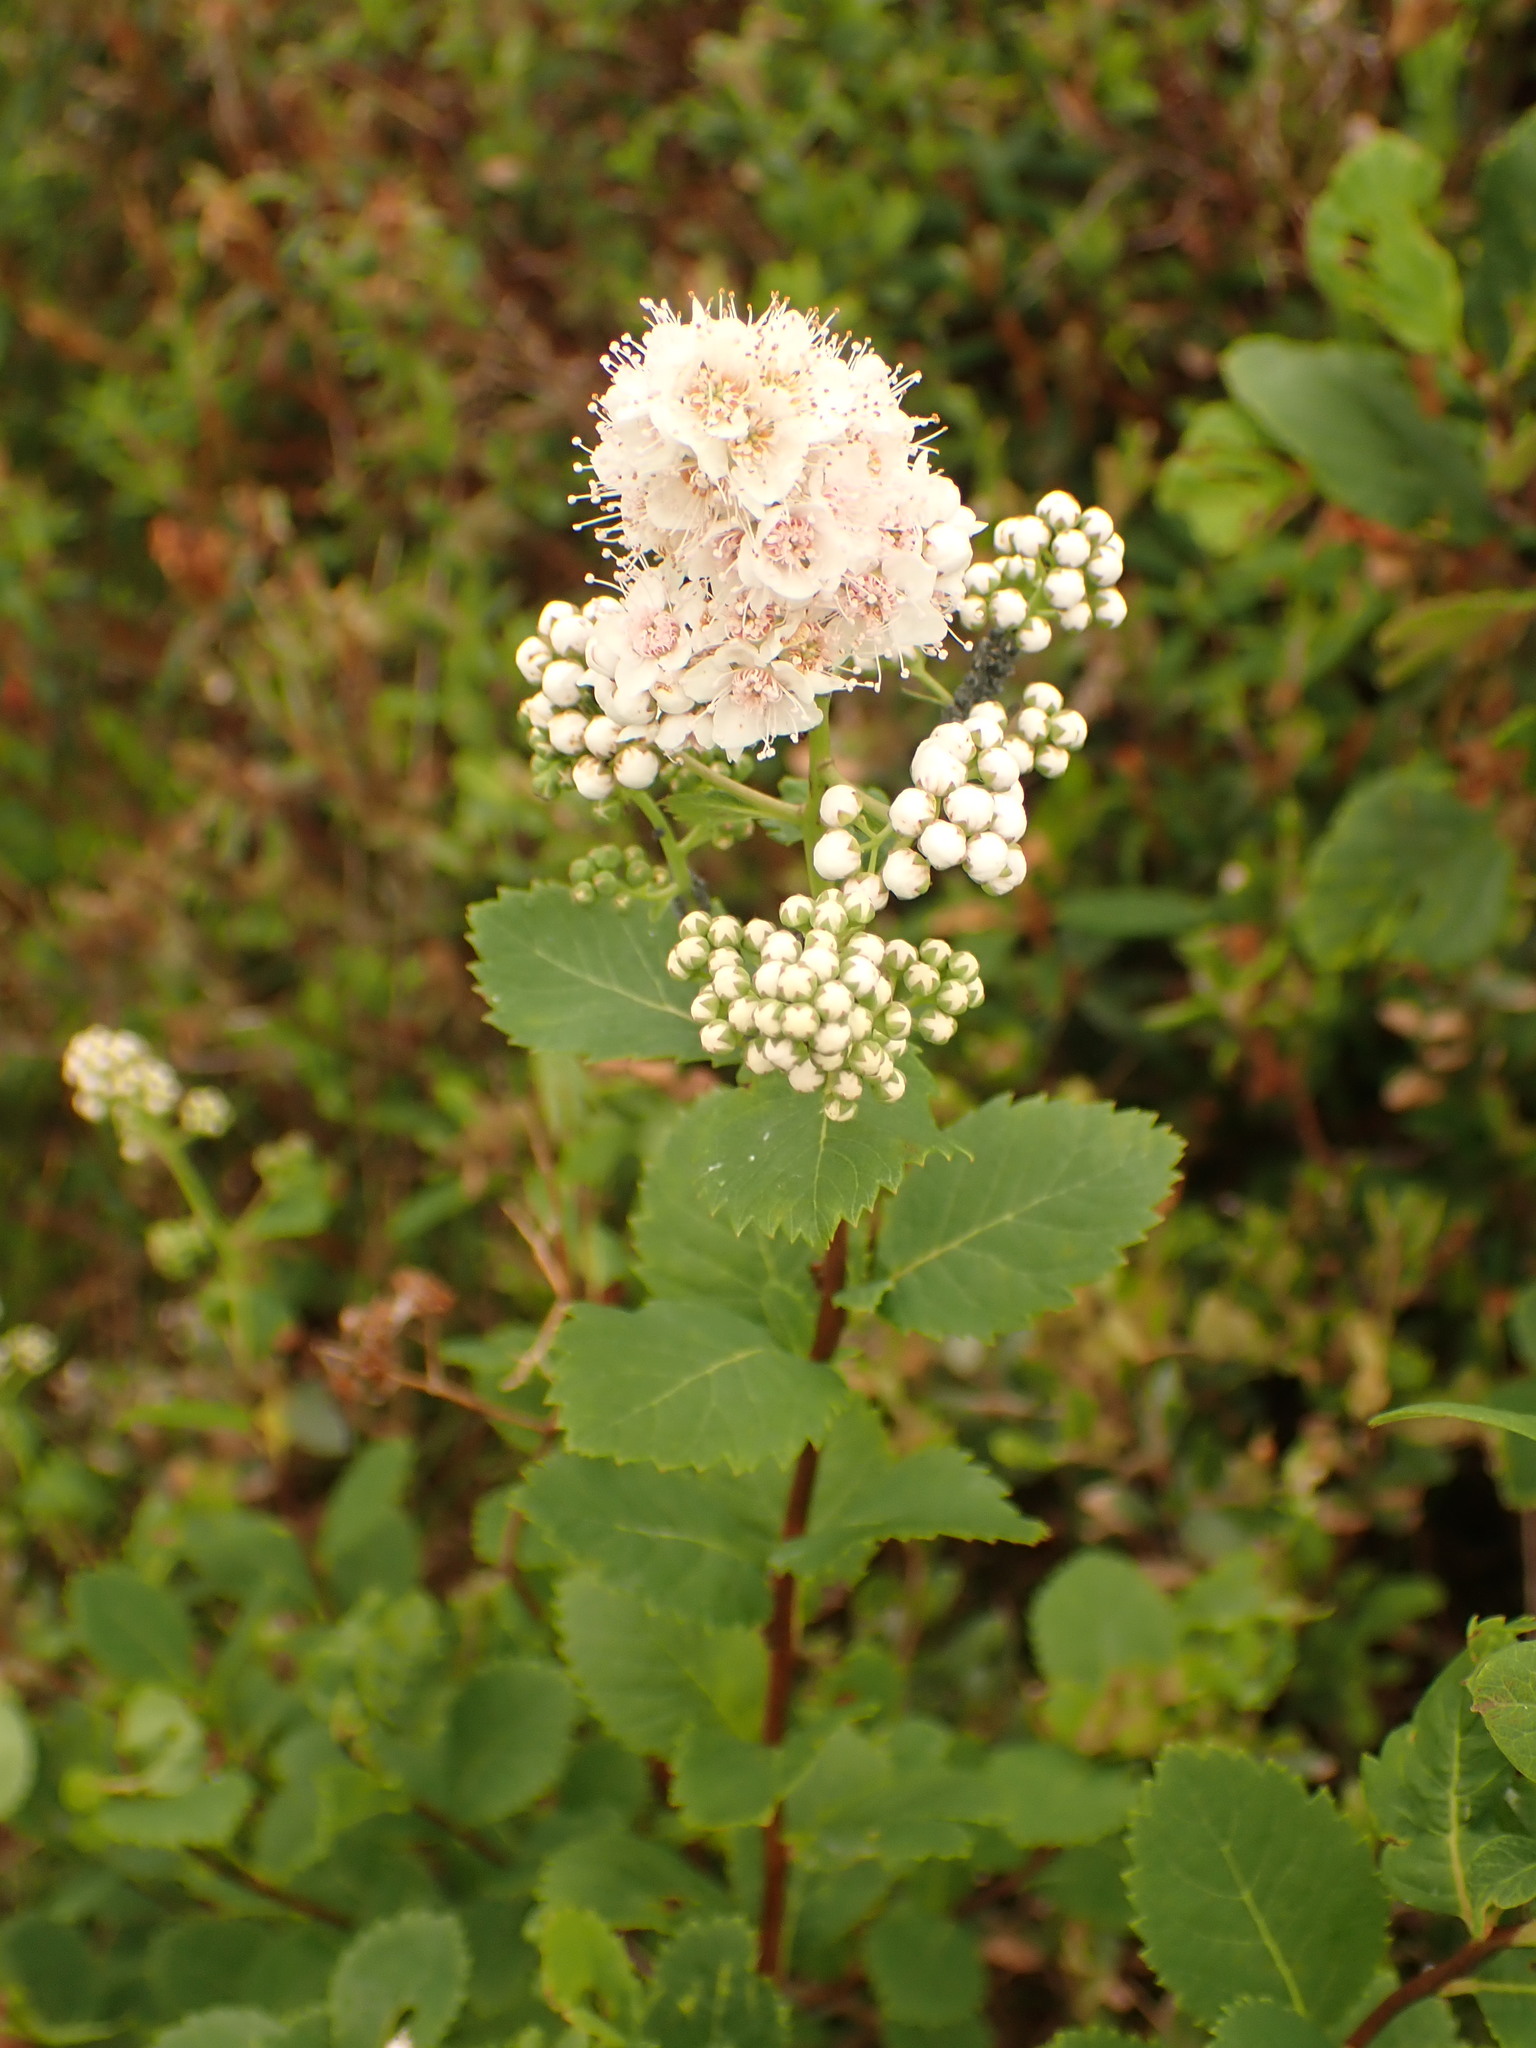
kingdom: Plantae
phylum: Tracheophyta
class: Magnoliopsida
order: Rosales
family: Rosaceae
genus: Spiraea
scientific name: Spiraea alba
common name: Pale bridewort
